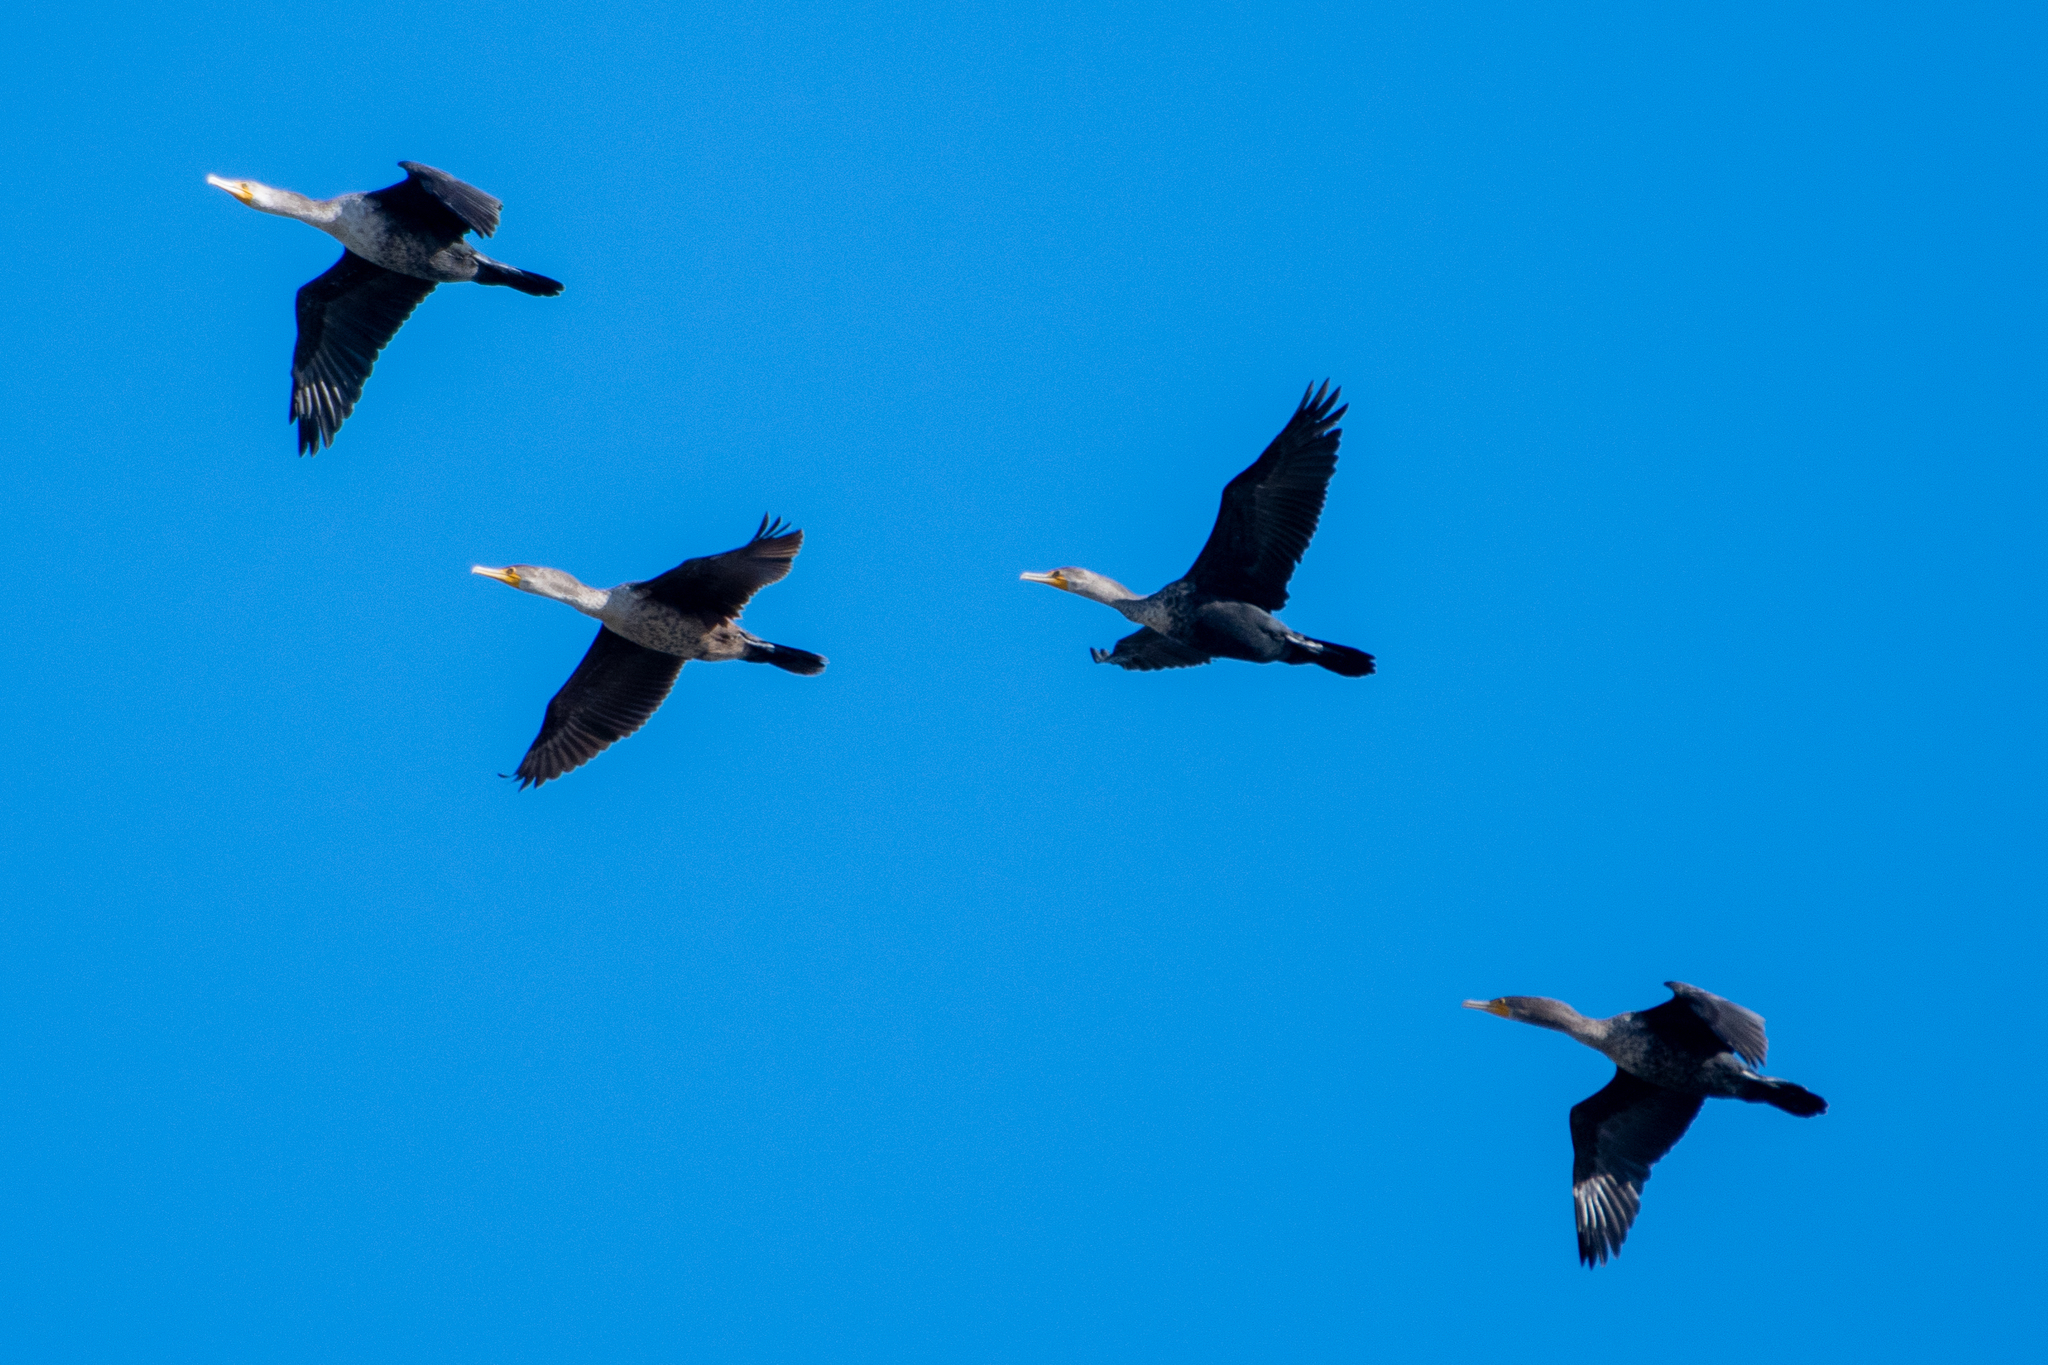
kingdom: Animalia
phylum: Chordata
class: Aves
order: Suliformes
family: Phalacrocoracidae
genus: Phalacrocorax
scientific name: Phalacrocorax auritus
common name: Double-crested cormorant
